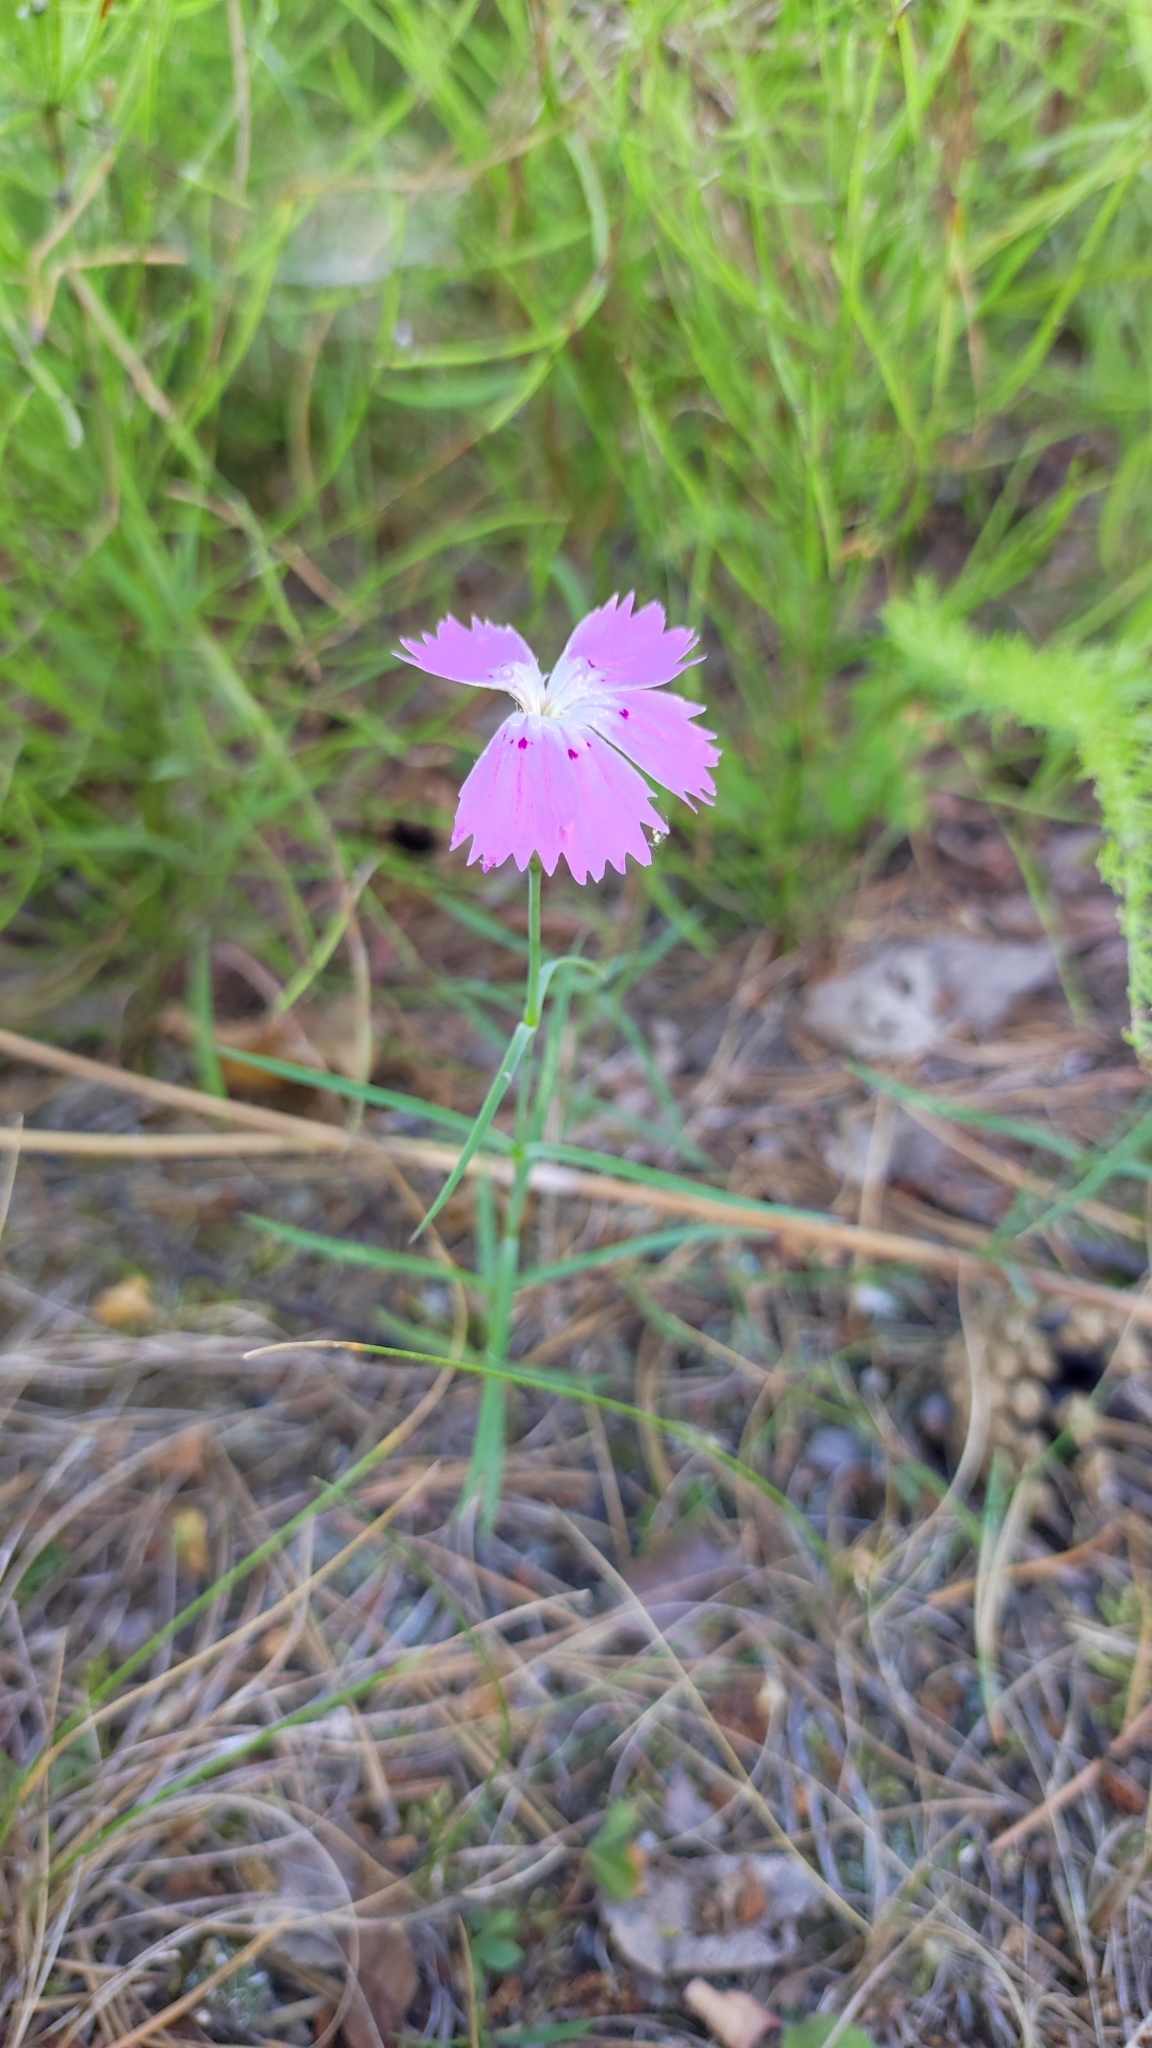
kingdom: Plantae
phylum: Tracheophyta
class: Magnoliopsida
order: Caryophyllales
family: Caryophyllaceae
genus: Dianthus
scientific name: Dianthus chinensis
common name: Rainbow pink
